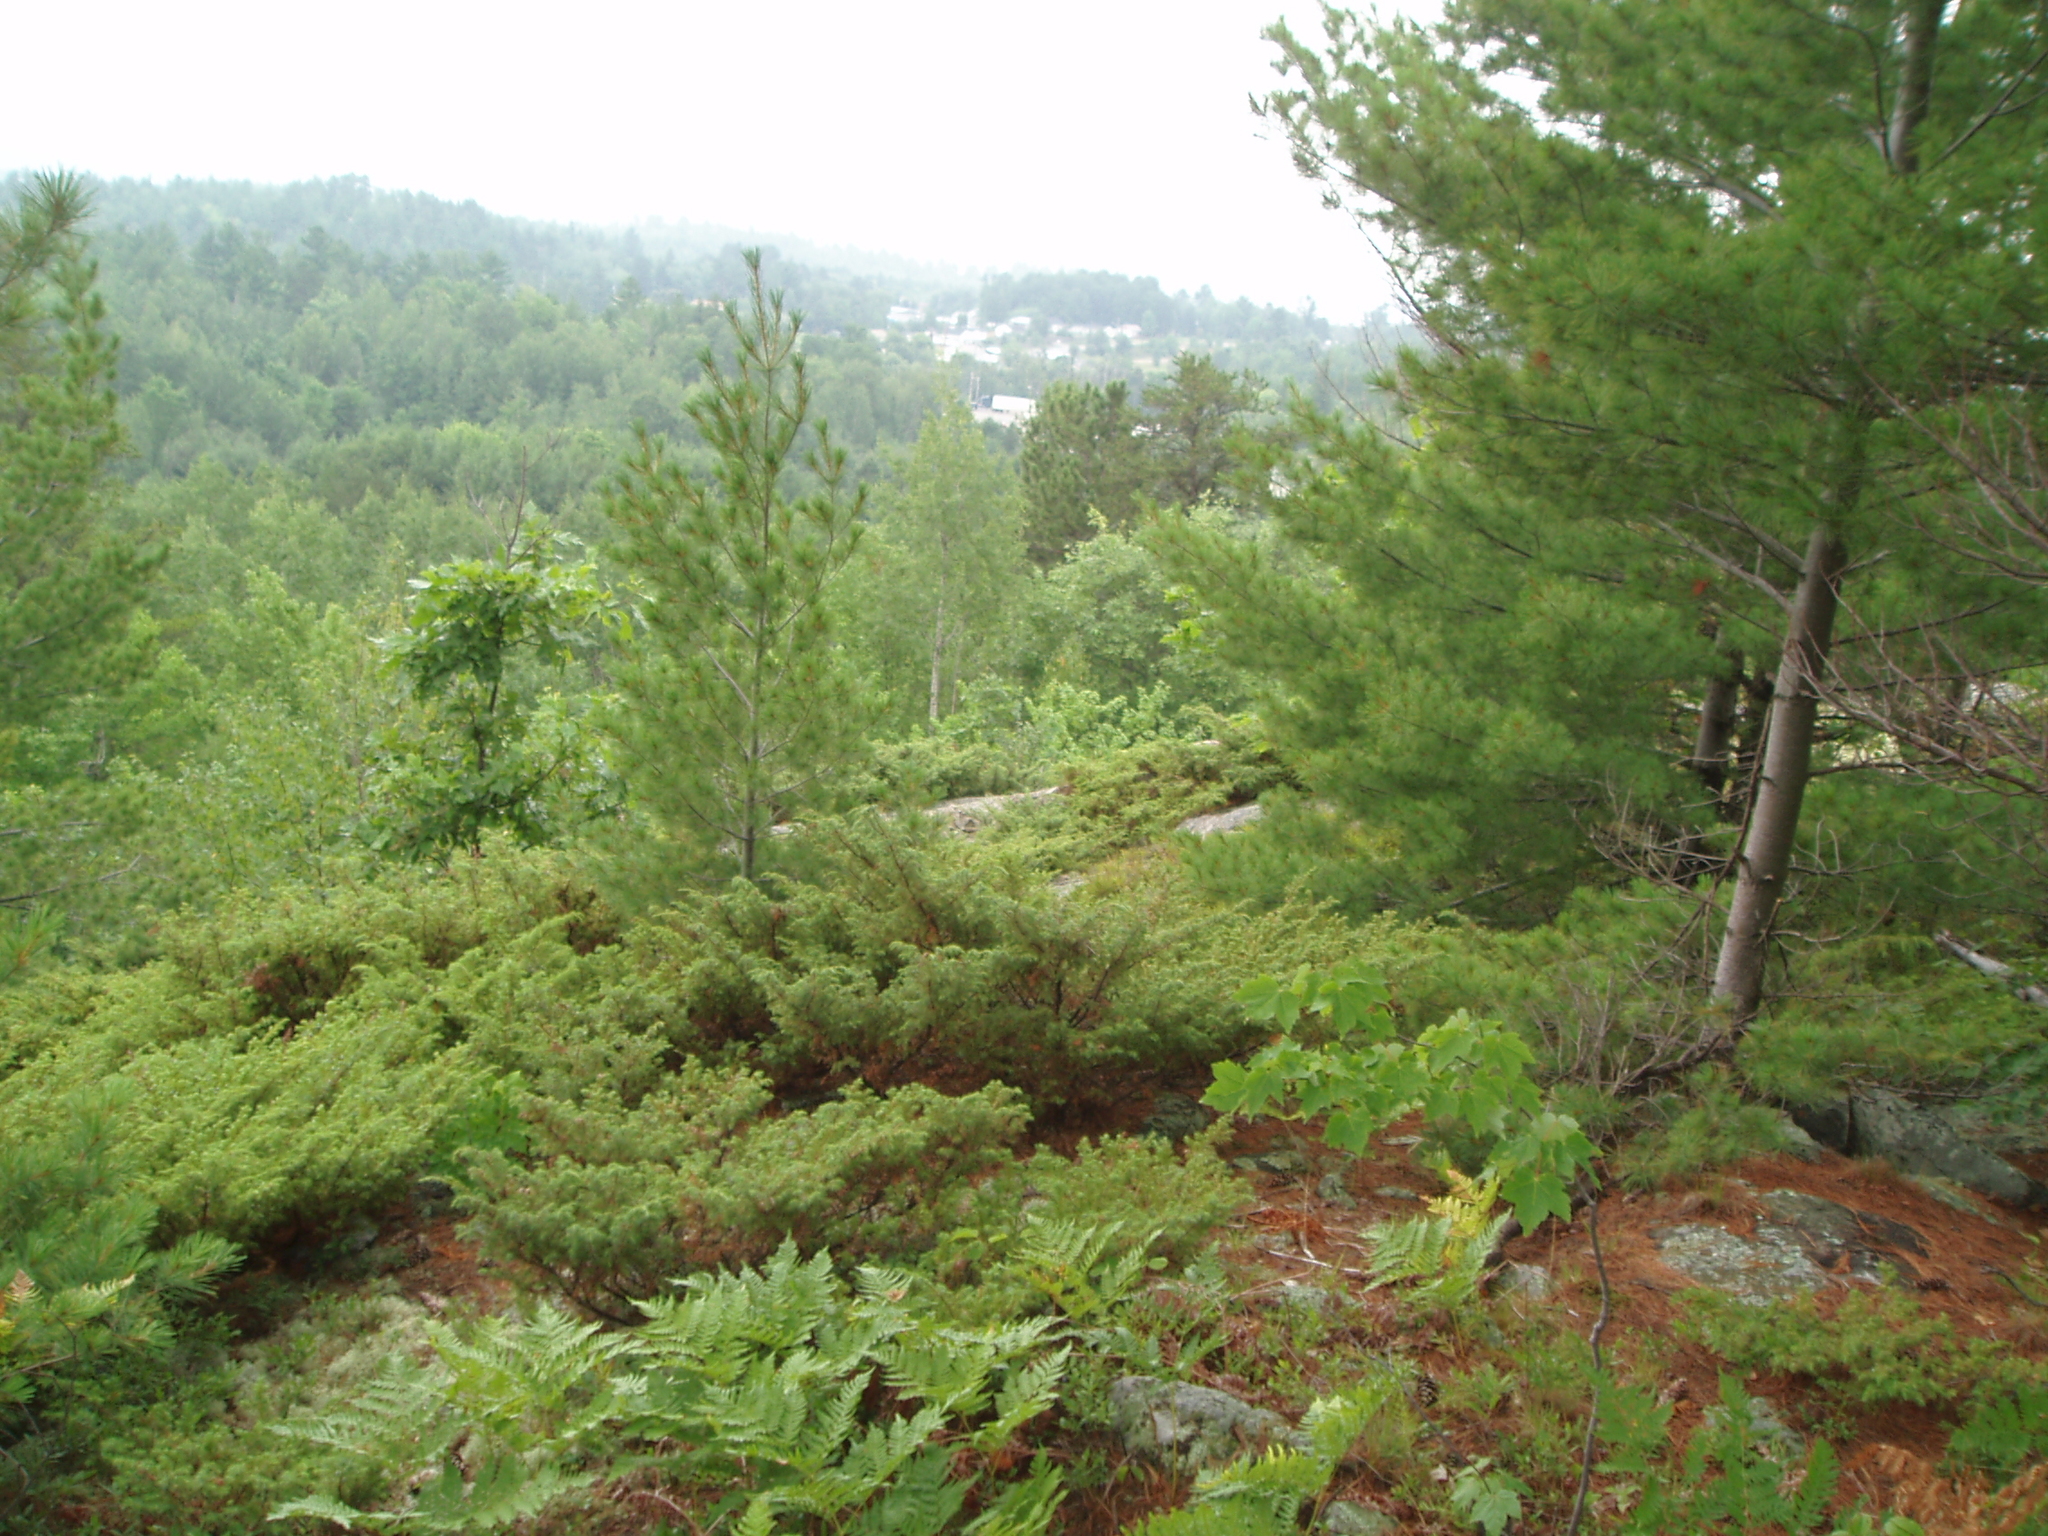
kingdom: Plantae
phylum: Tracheophyta
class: Pinopsida
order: Pinales
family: Pinaceae
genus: Pinus
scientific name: Pinus strobus
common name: Weymouth pine
